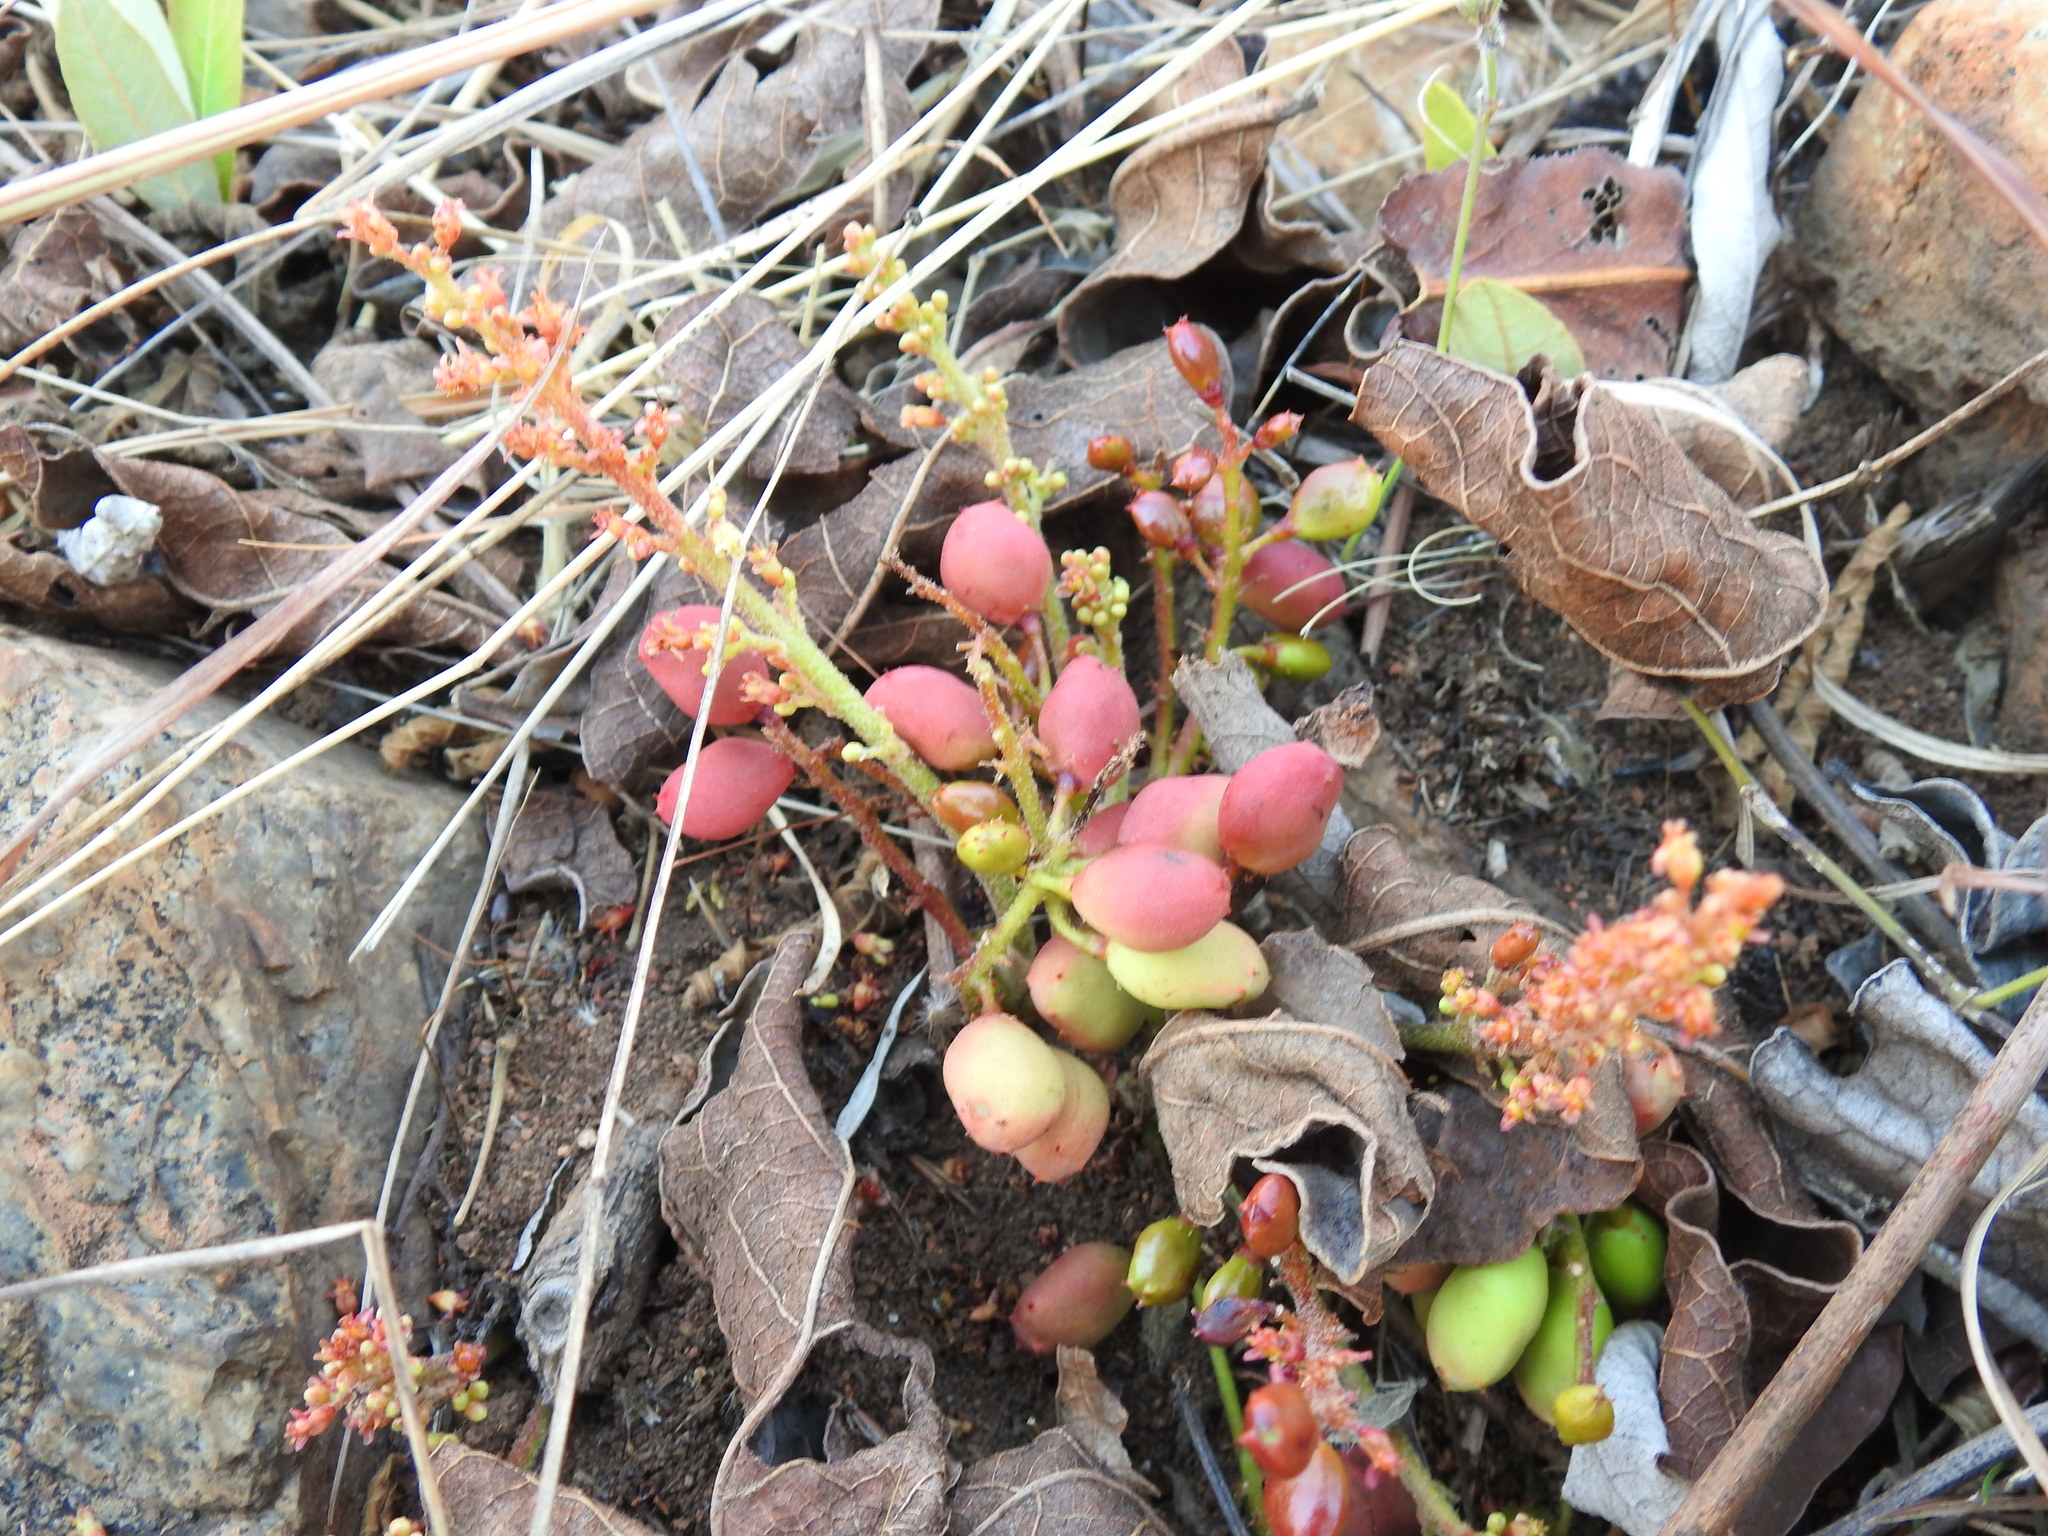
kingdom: Plantae
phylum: Tracheophyta
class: Magnoliopsida
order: Sapindales
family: Anacardiaceae
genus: Lannea
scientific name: Lannea edulis
